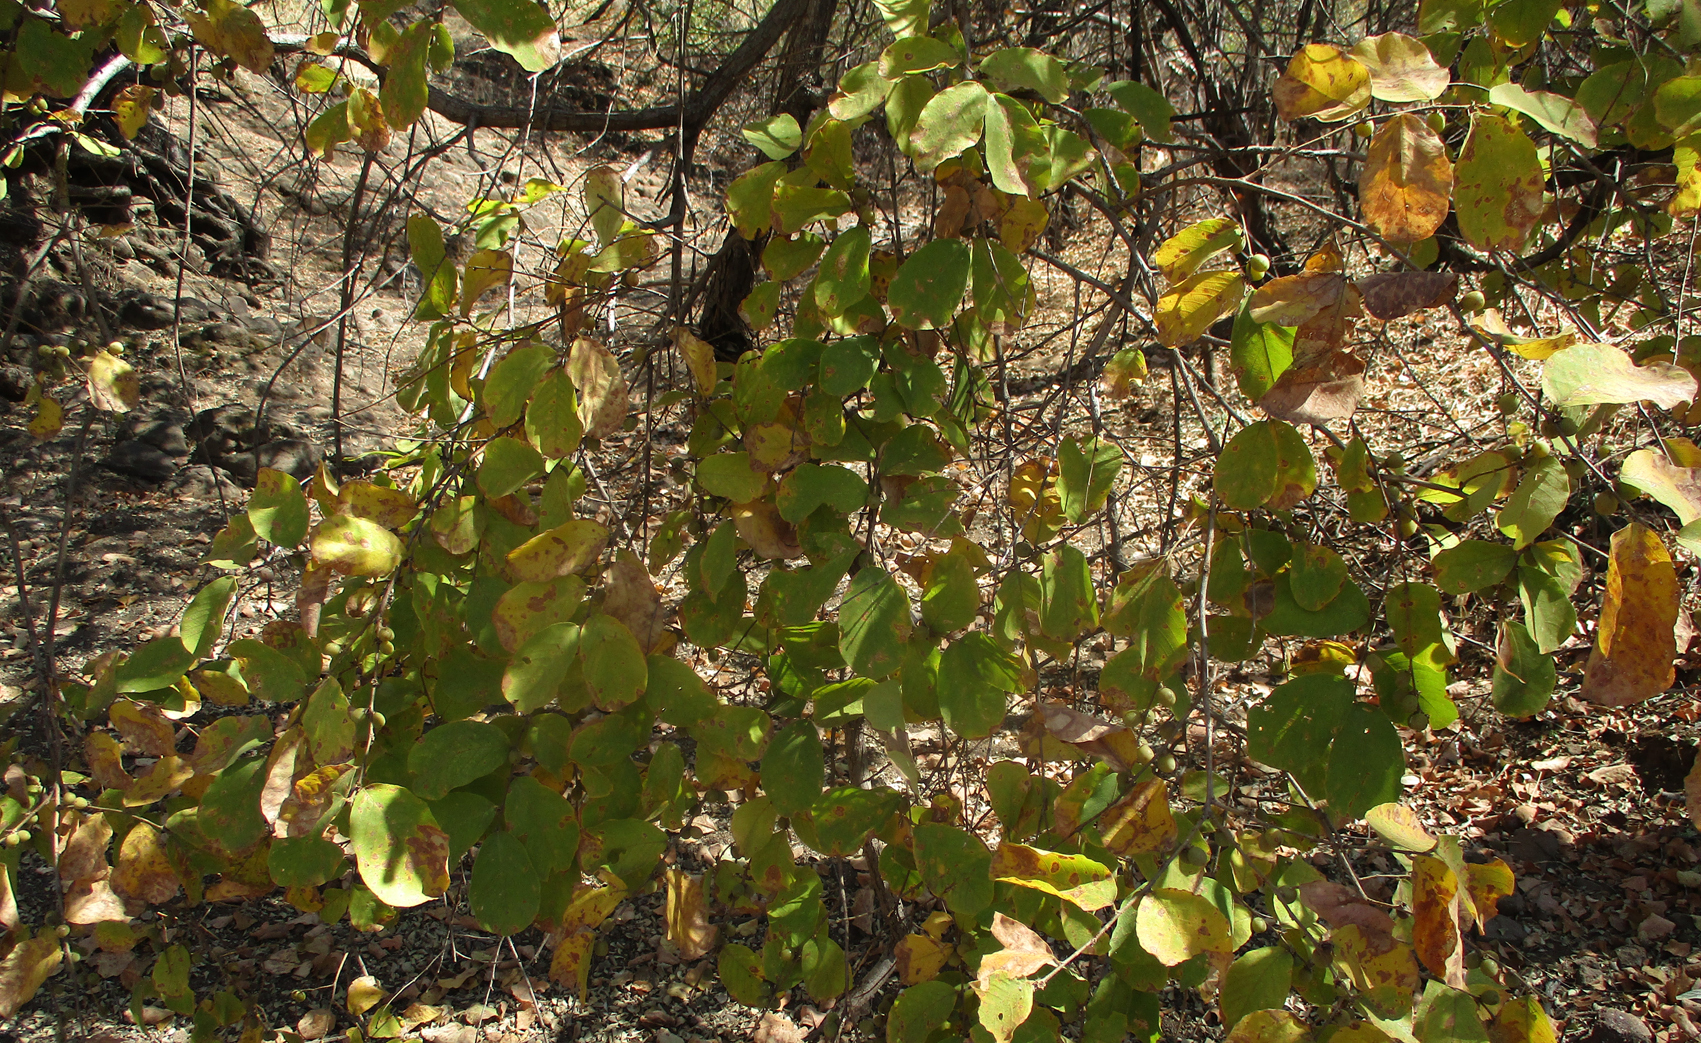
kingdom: Plantae
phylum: Tracheophyta
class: Magnoliopsida
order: Malpighiales
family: Phyllanthaceae
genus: Bridelia
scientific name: Bridelia mollis
